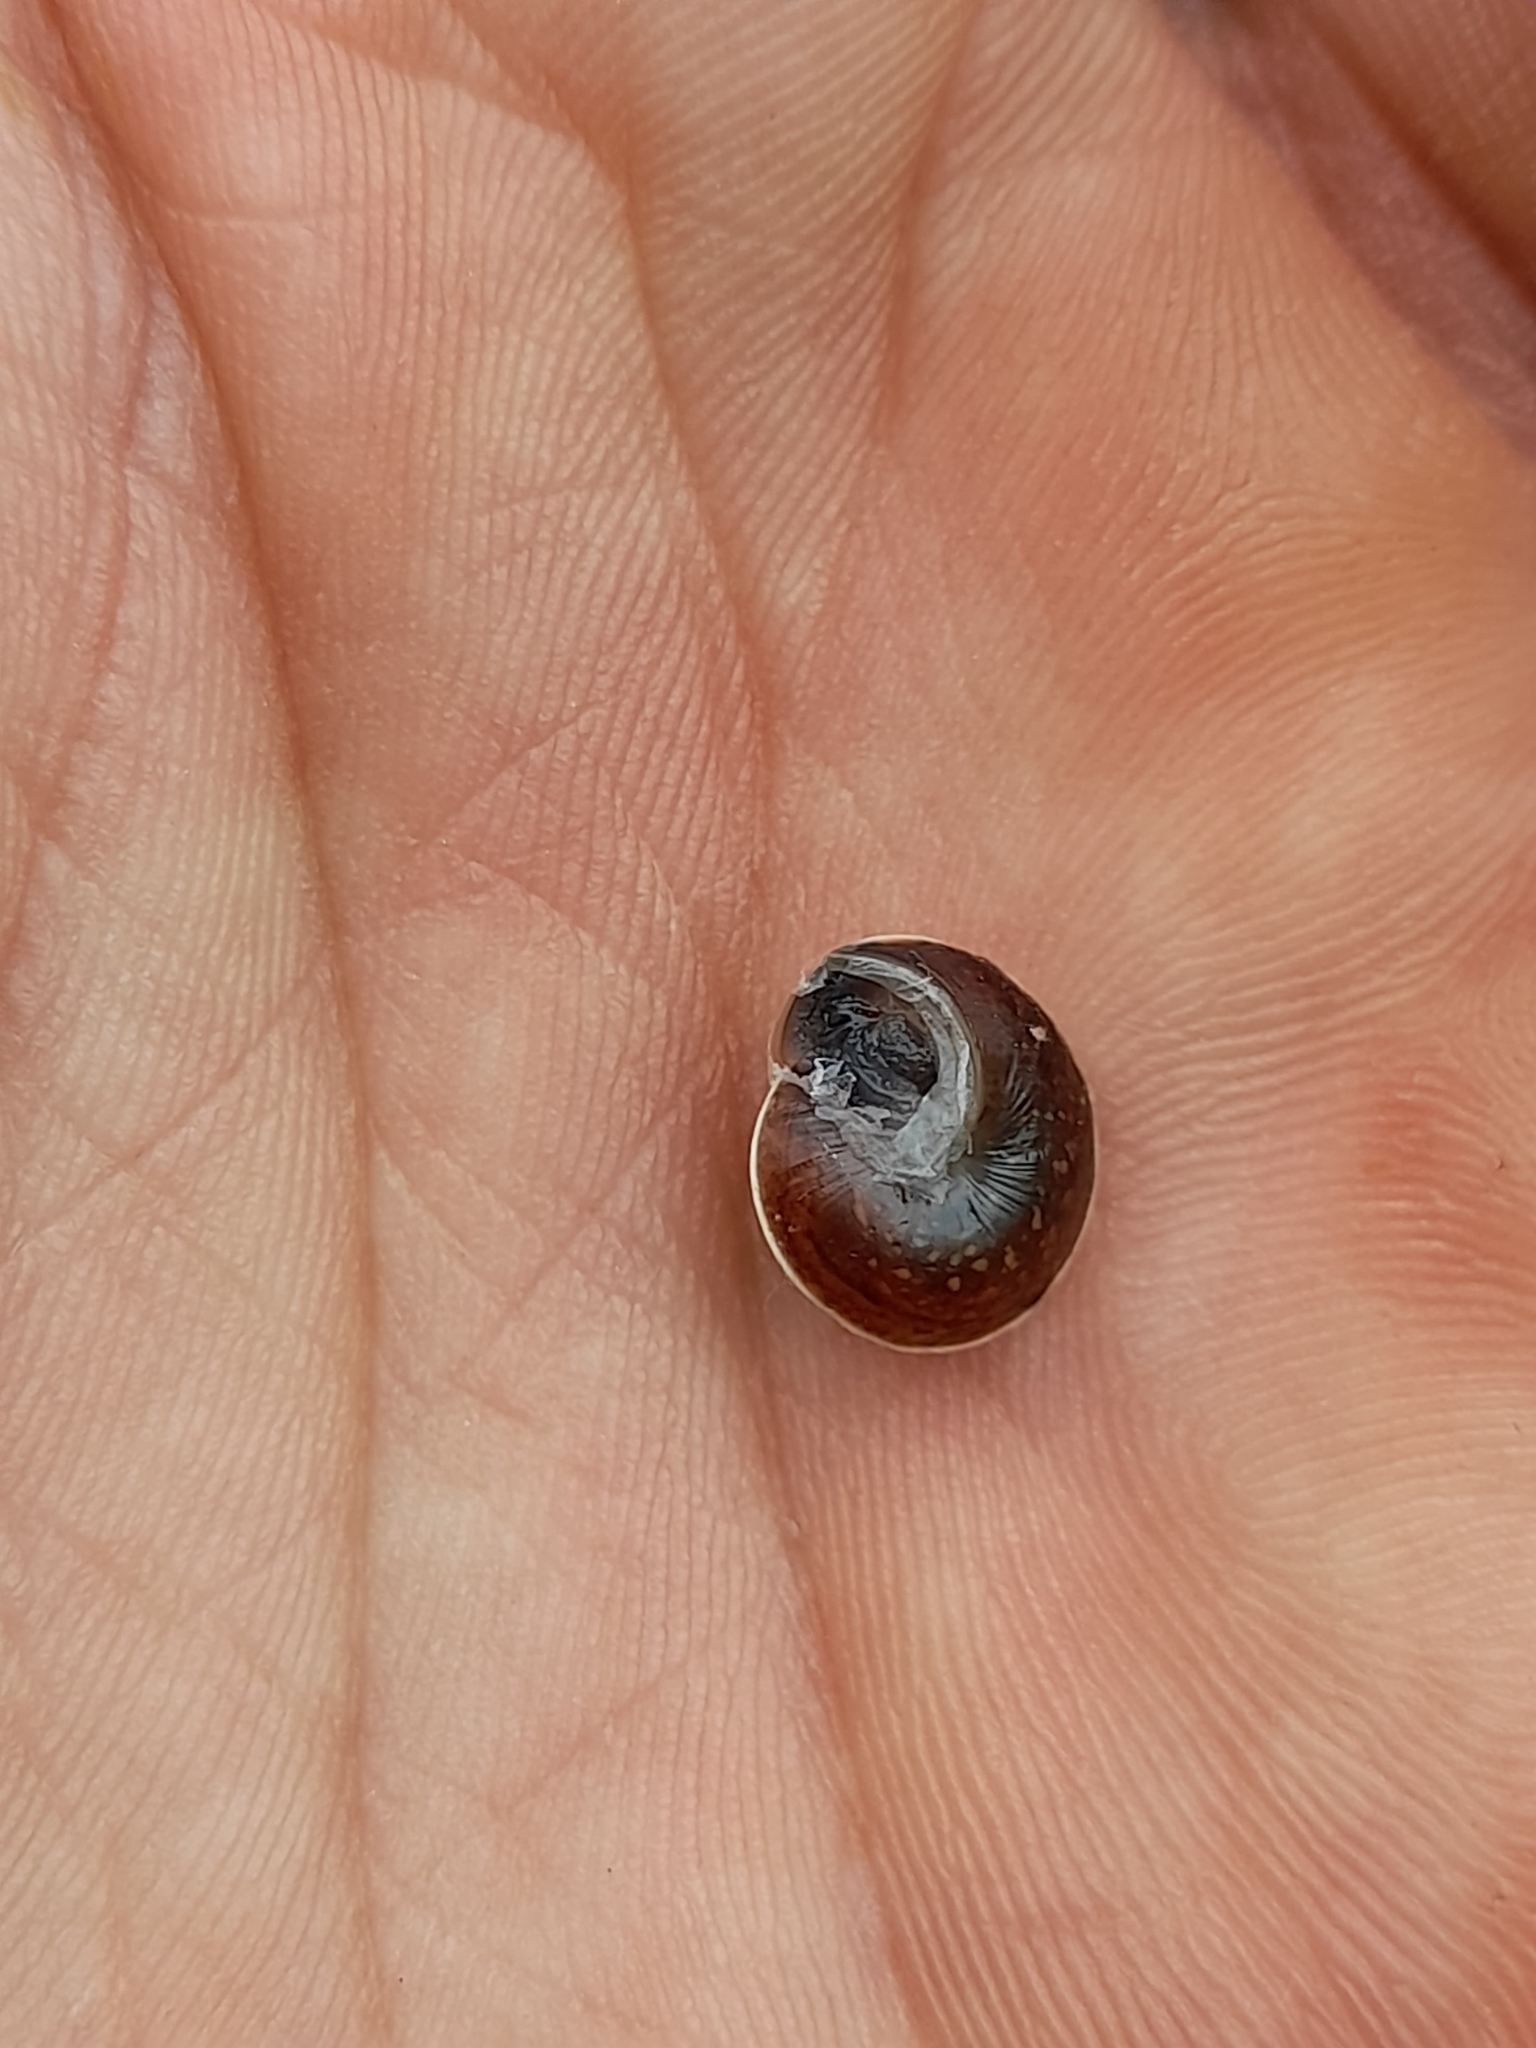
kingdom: Animalia
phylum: Mollusca
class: Gastropoda
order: Stylommatophora
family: Hygromiidae
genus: Hygromia
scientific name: Hygromia cinctella
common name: Girdled snail
